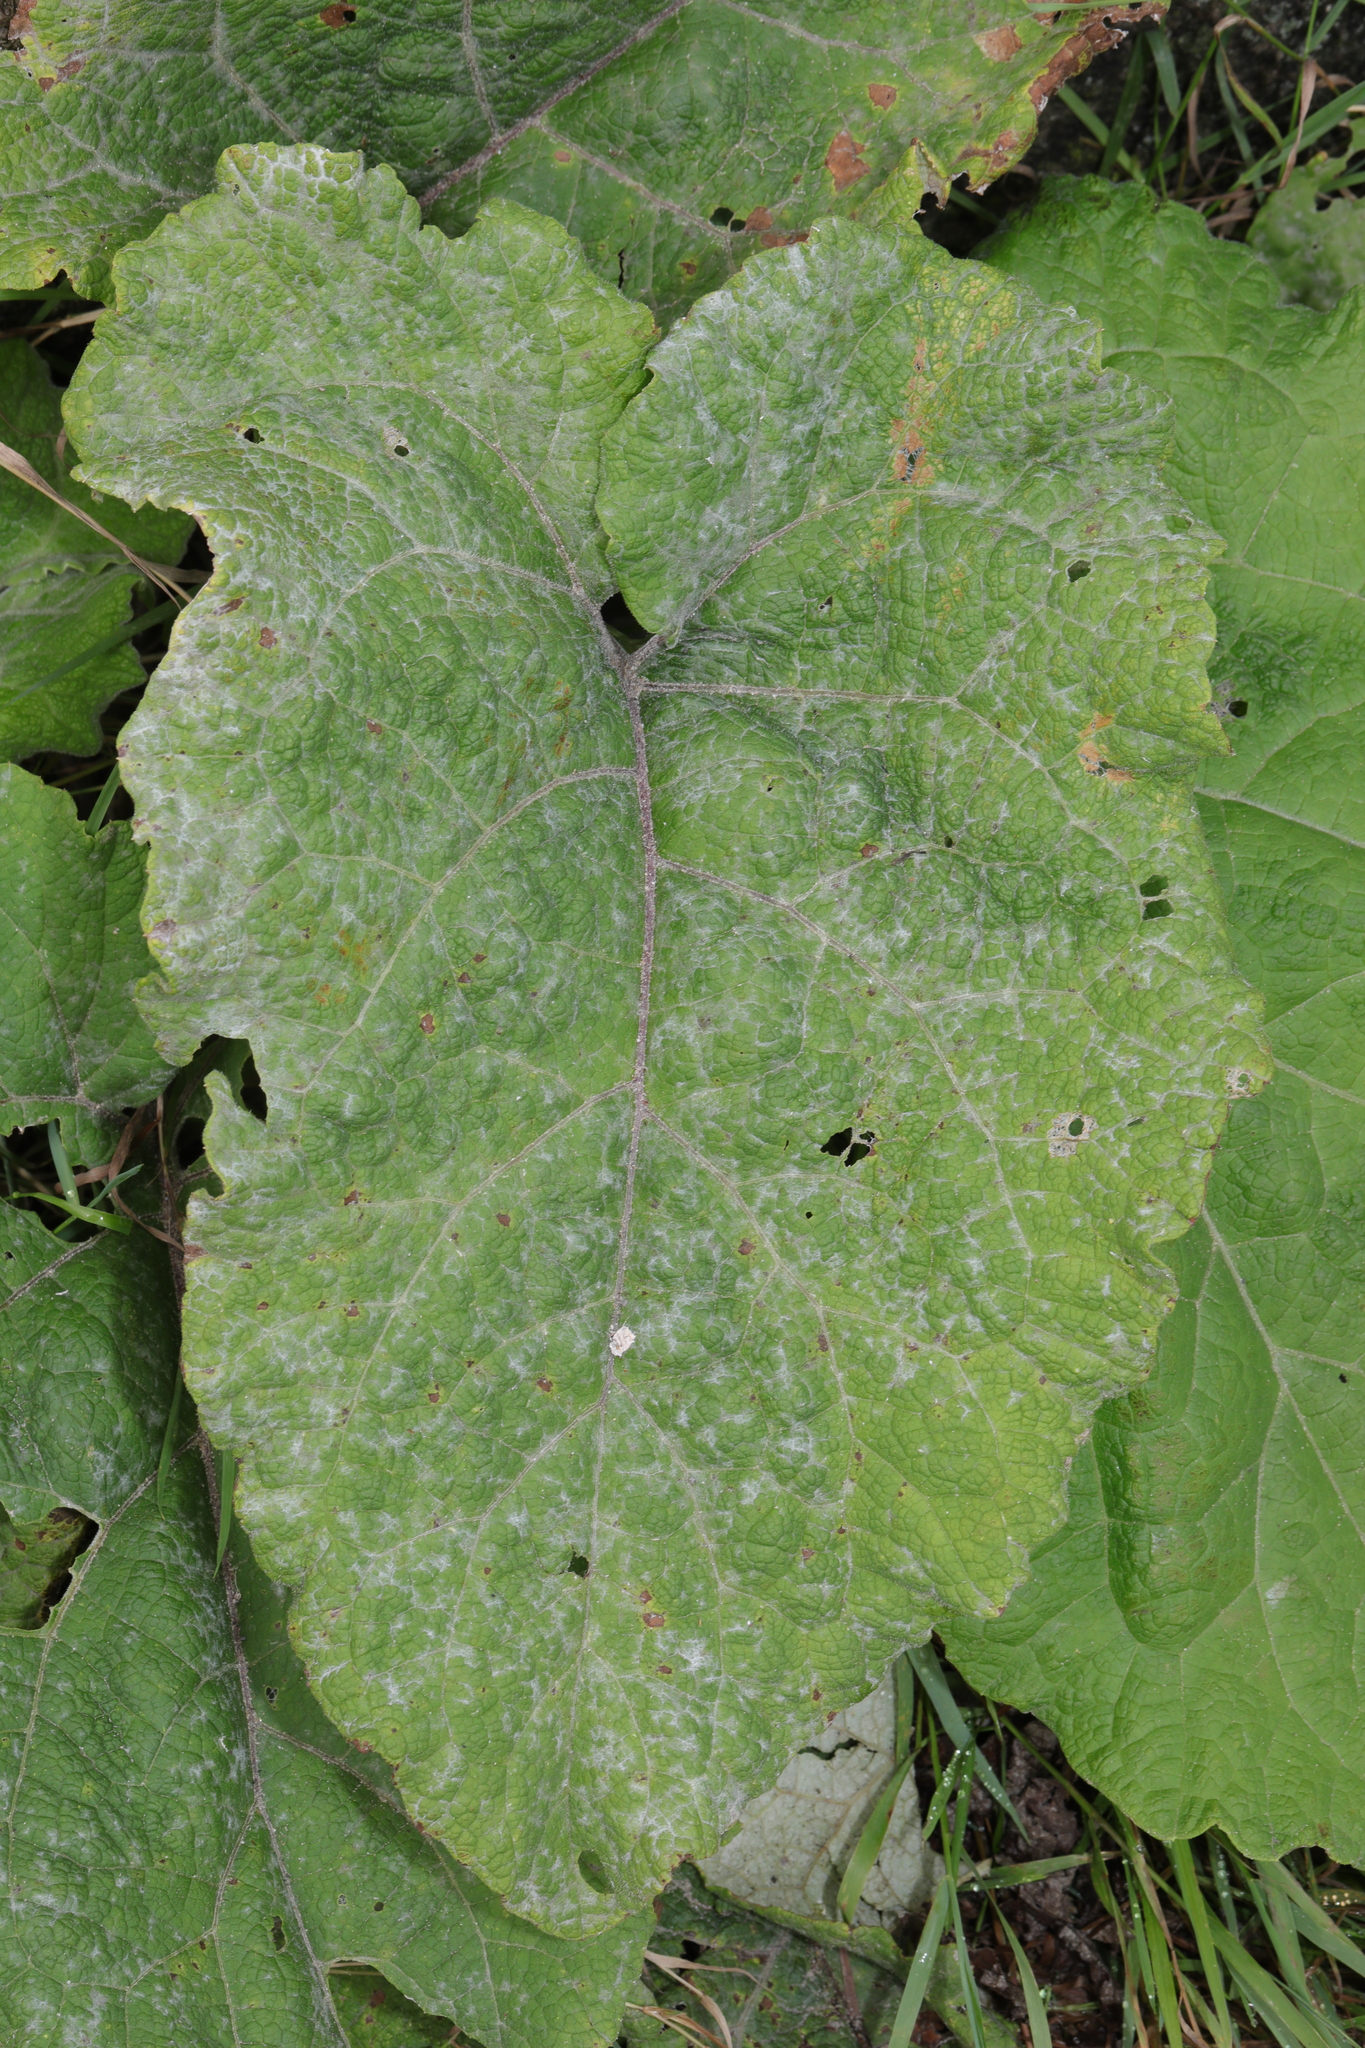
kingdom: Plantae
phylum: Tracheophyta
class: Magnoliopsida
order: Asterales
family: Asteraceae
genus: Arctium
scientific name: Arctium minus
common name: Lesser burdock
